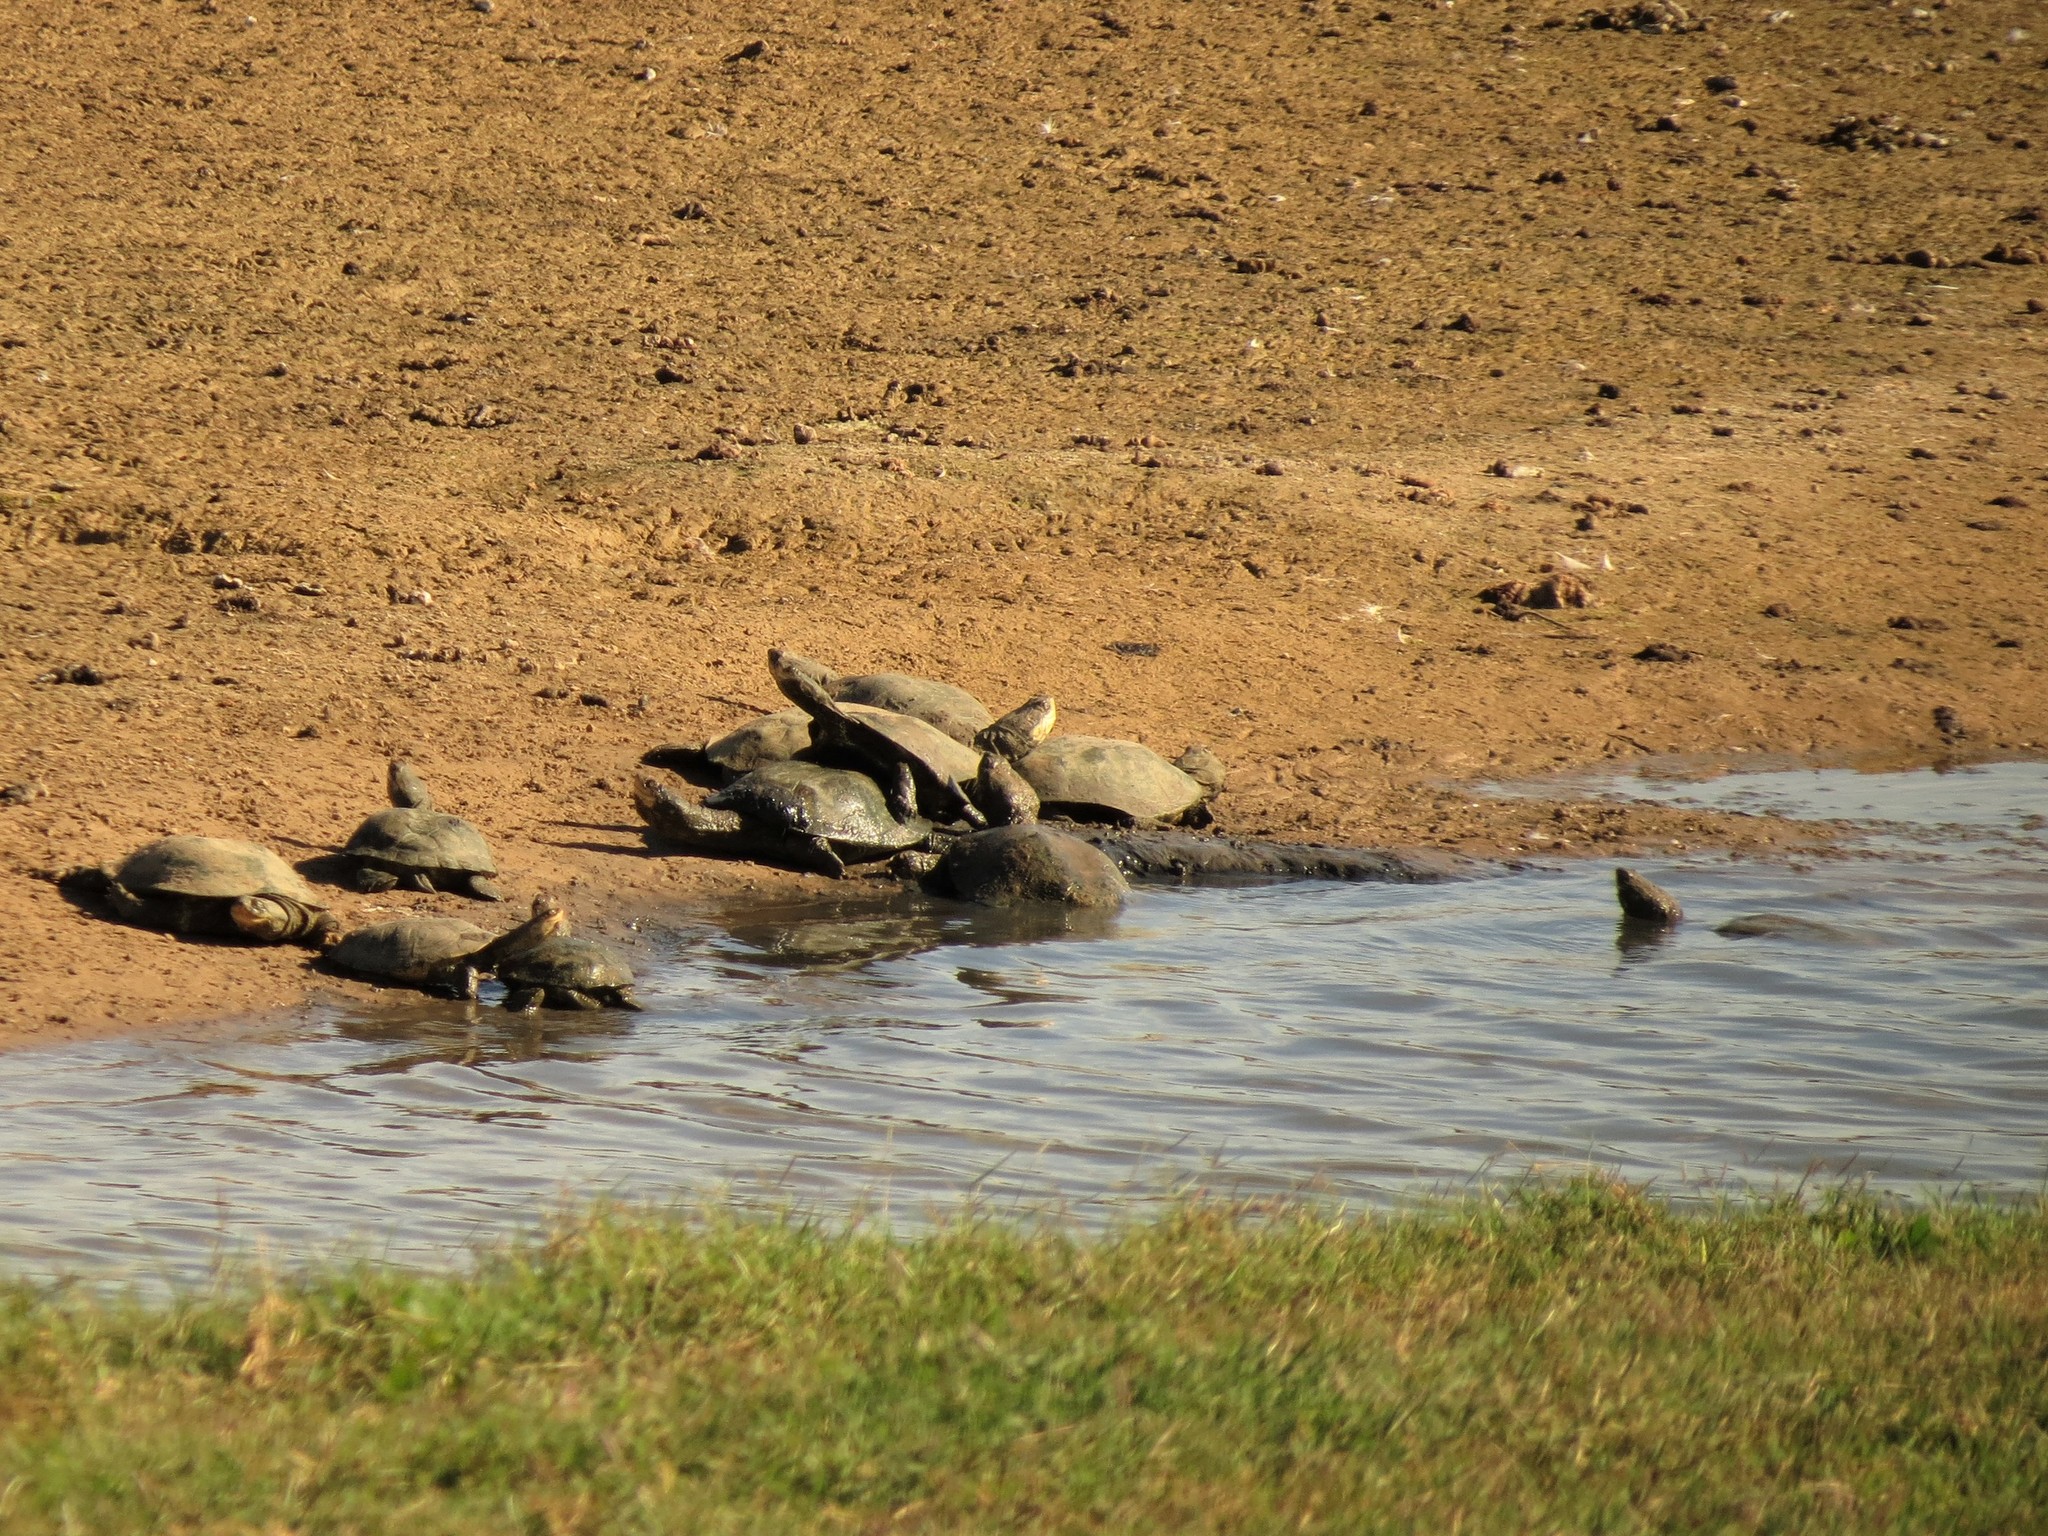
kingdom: Animalia
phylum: Chordata
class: Testudines
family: Pelomedusidae
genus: Pelomedusa
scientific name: Pelomedusa galeata
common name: South african helmeted terrapin
